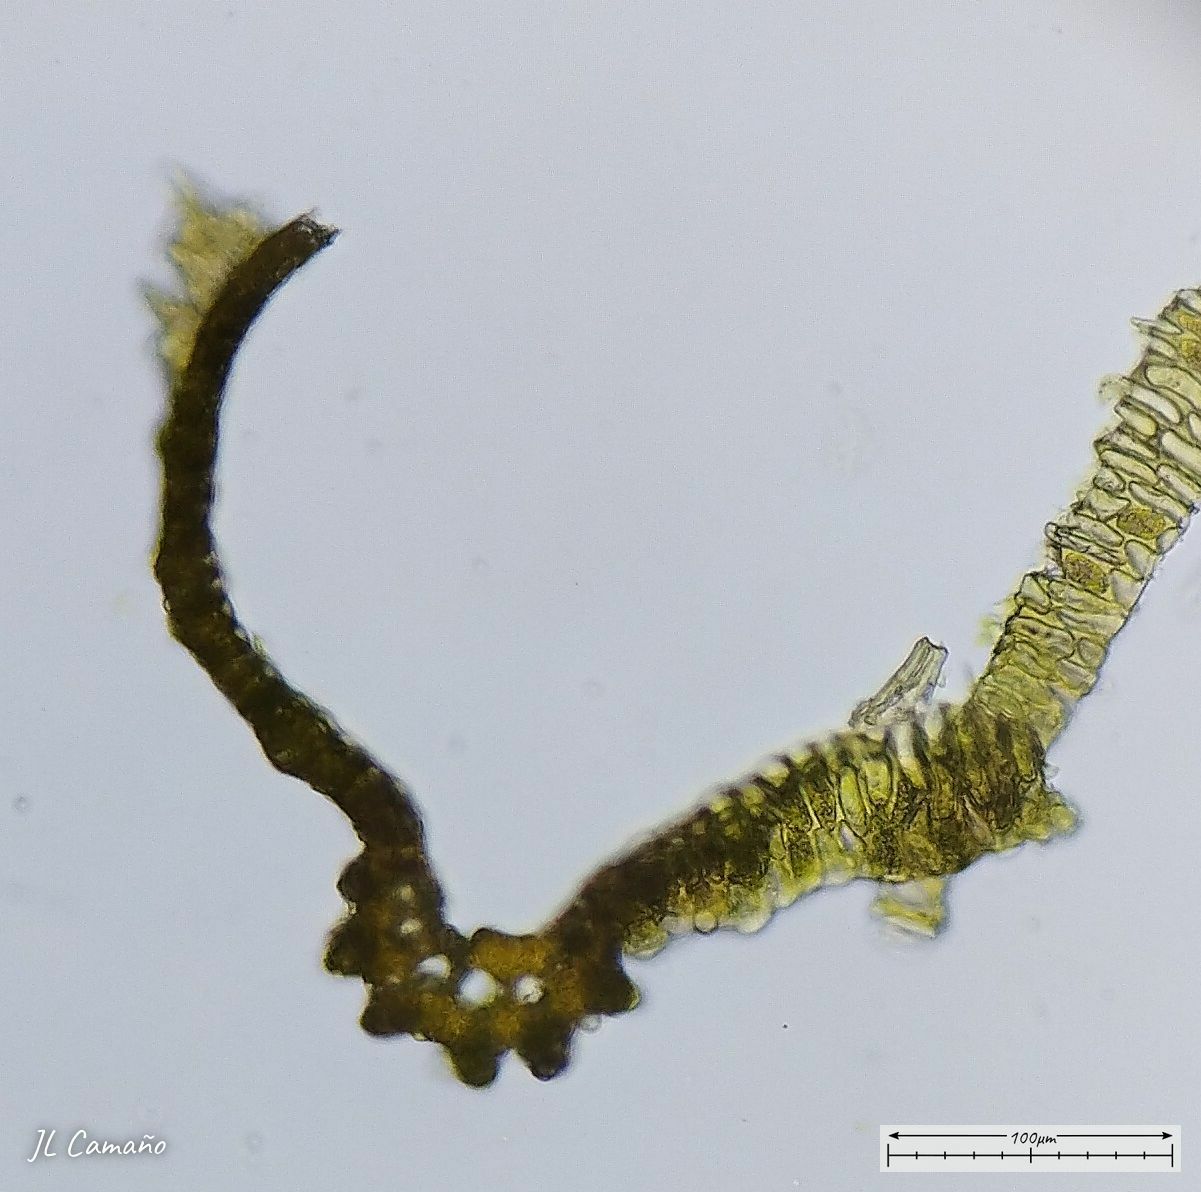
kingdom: Plantae
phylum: Bryophyta
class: Bryopsida
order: Dicranales
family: Dicranaceae
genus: Dicranum
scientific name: Dicranum scoparium
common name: Broom fork-moss
